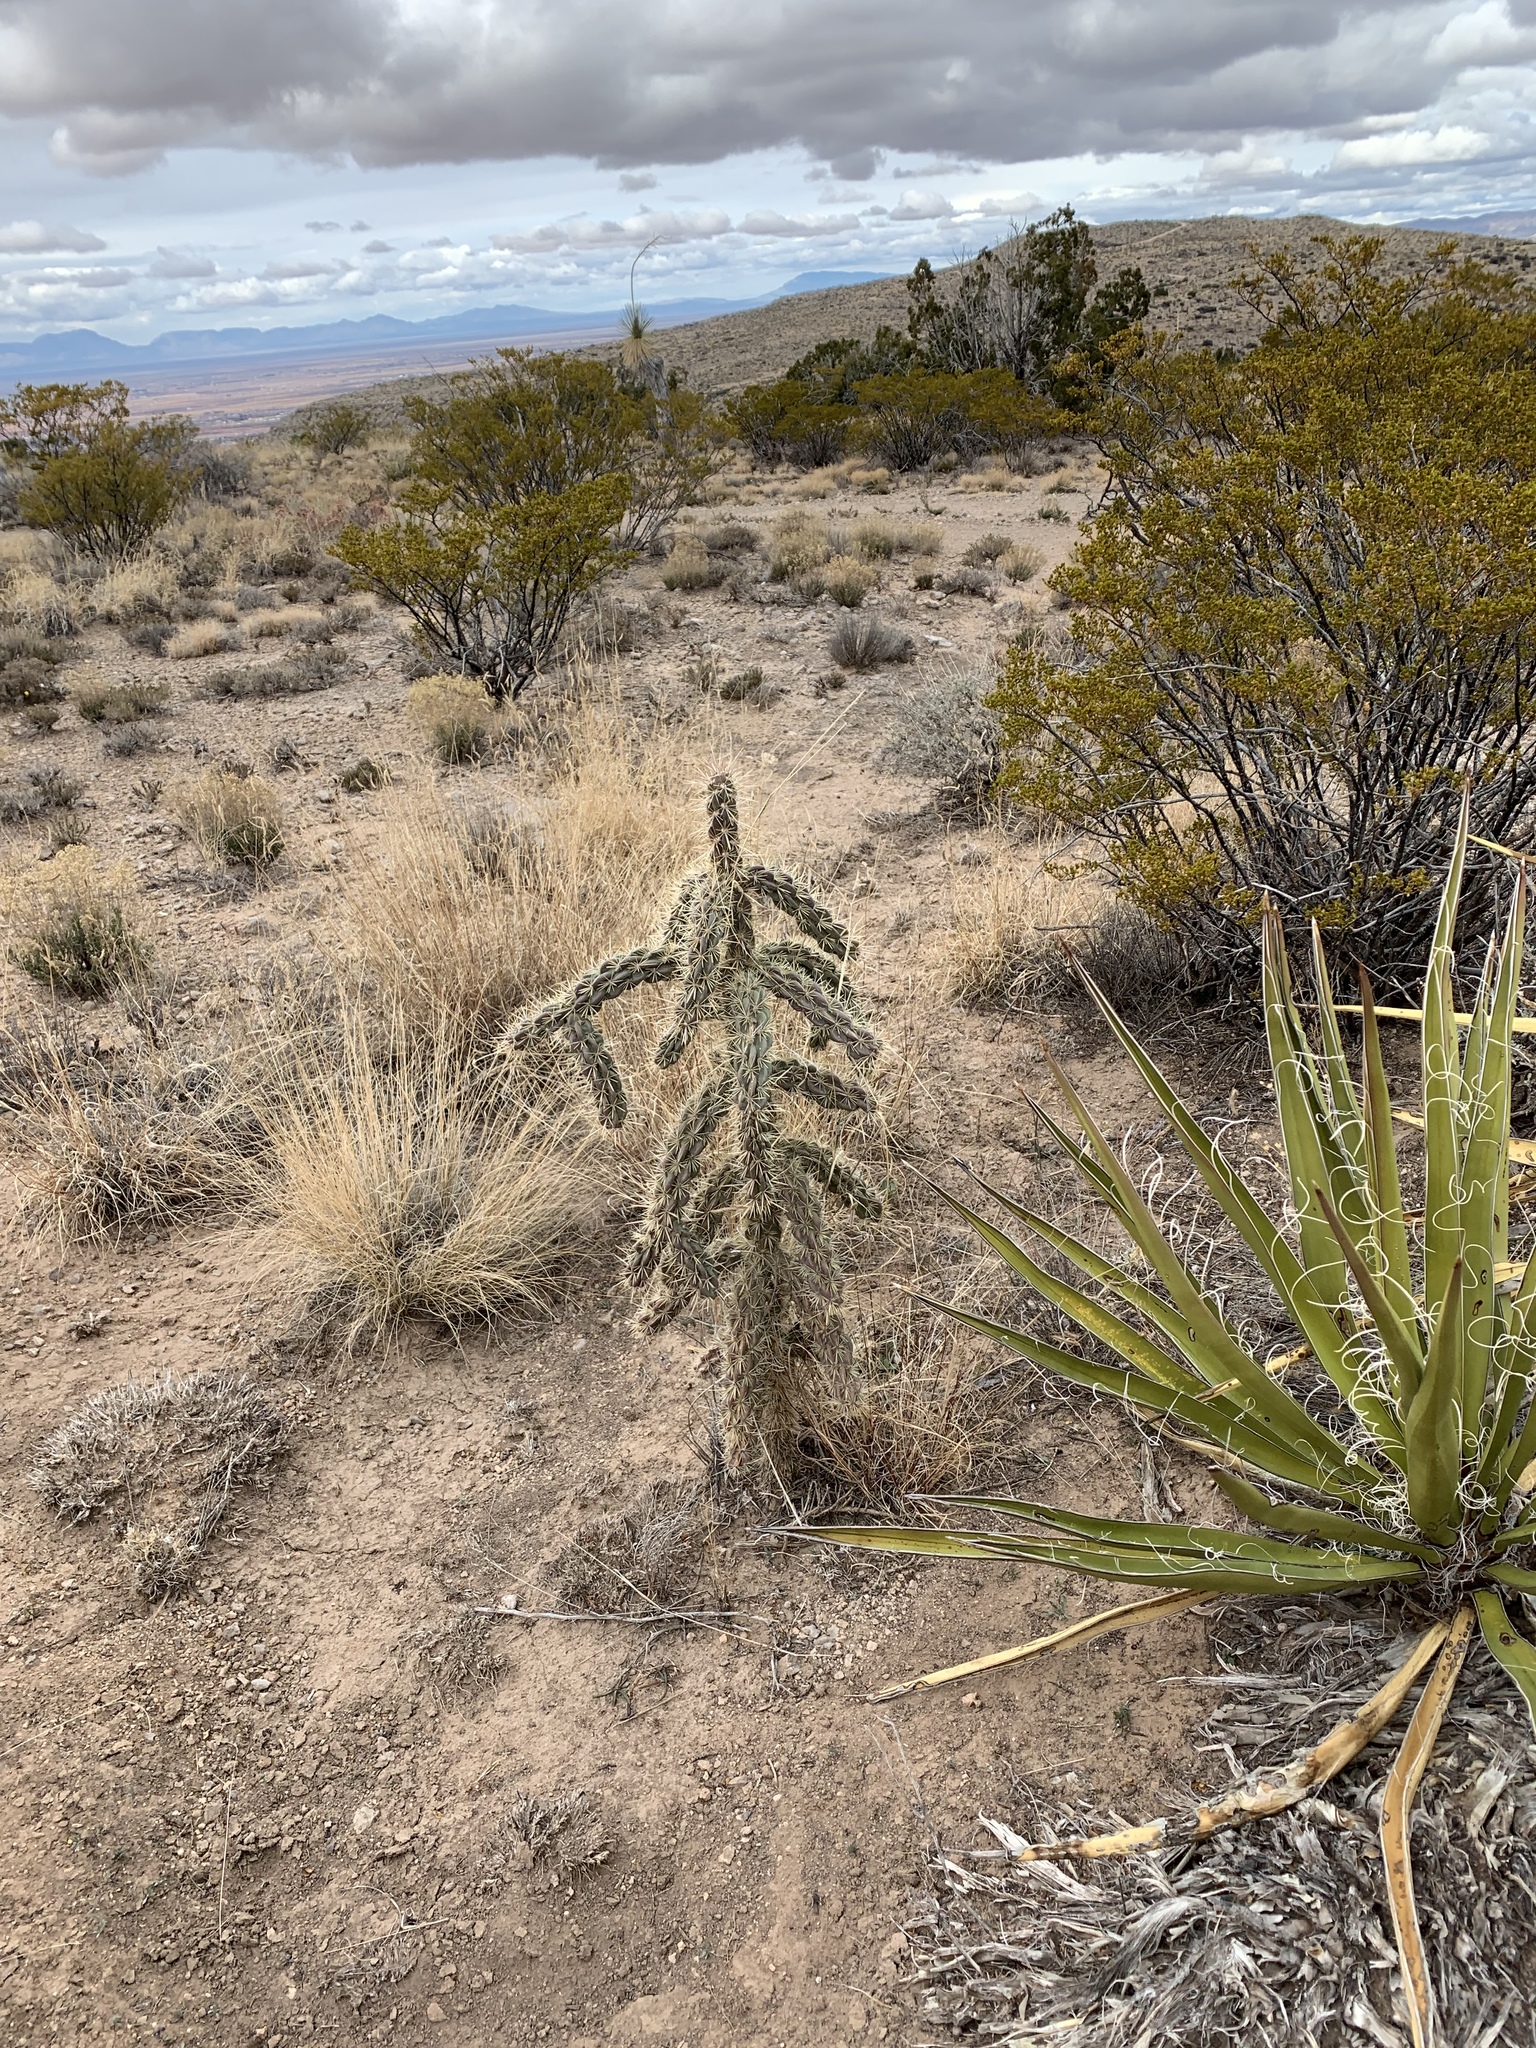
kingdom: Plantae
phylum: Tracheophyta
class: Magnoliopsida
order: Caryophyllales
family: Cactaceae
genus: Cylindropuntia
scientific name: Cylindropuntia imbricata
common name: Candelabrum cactus
